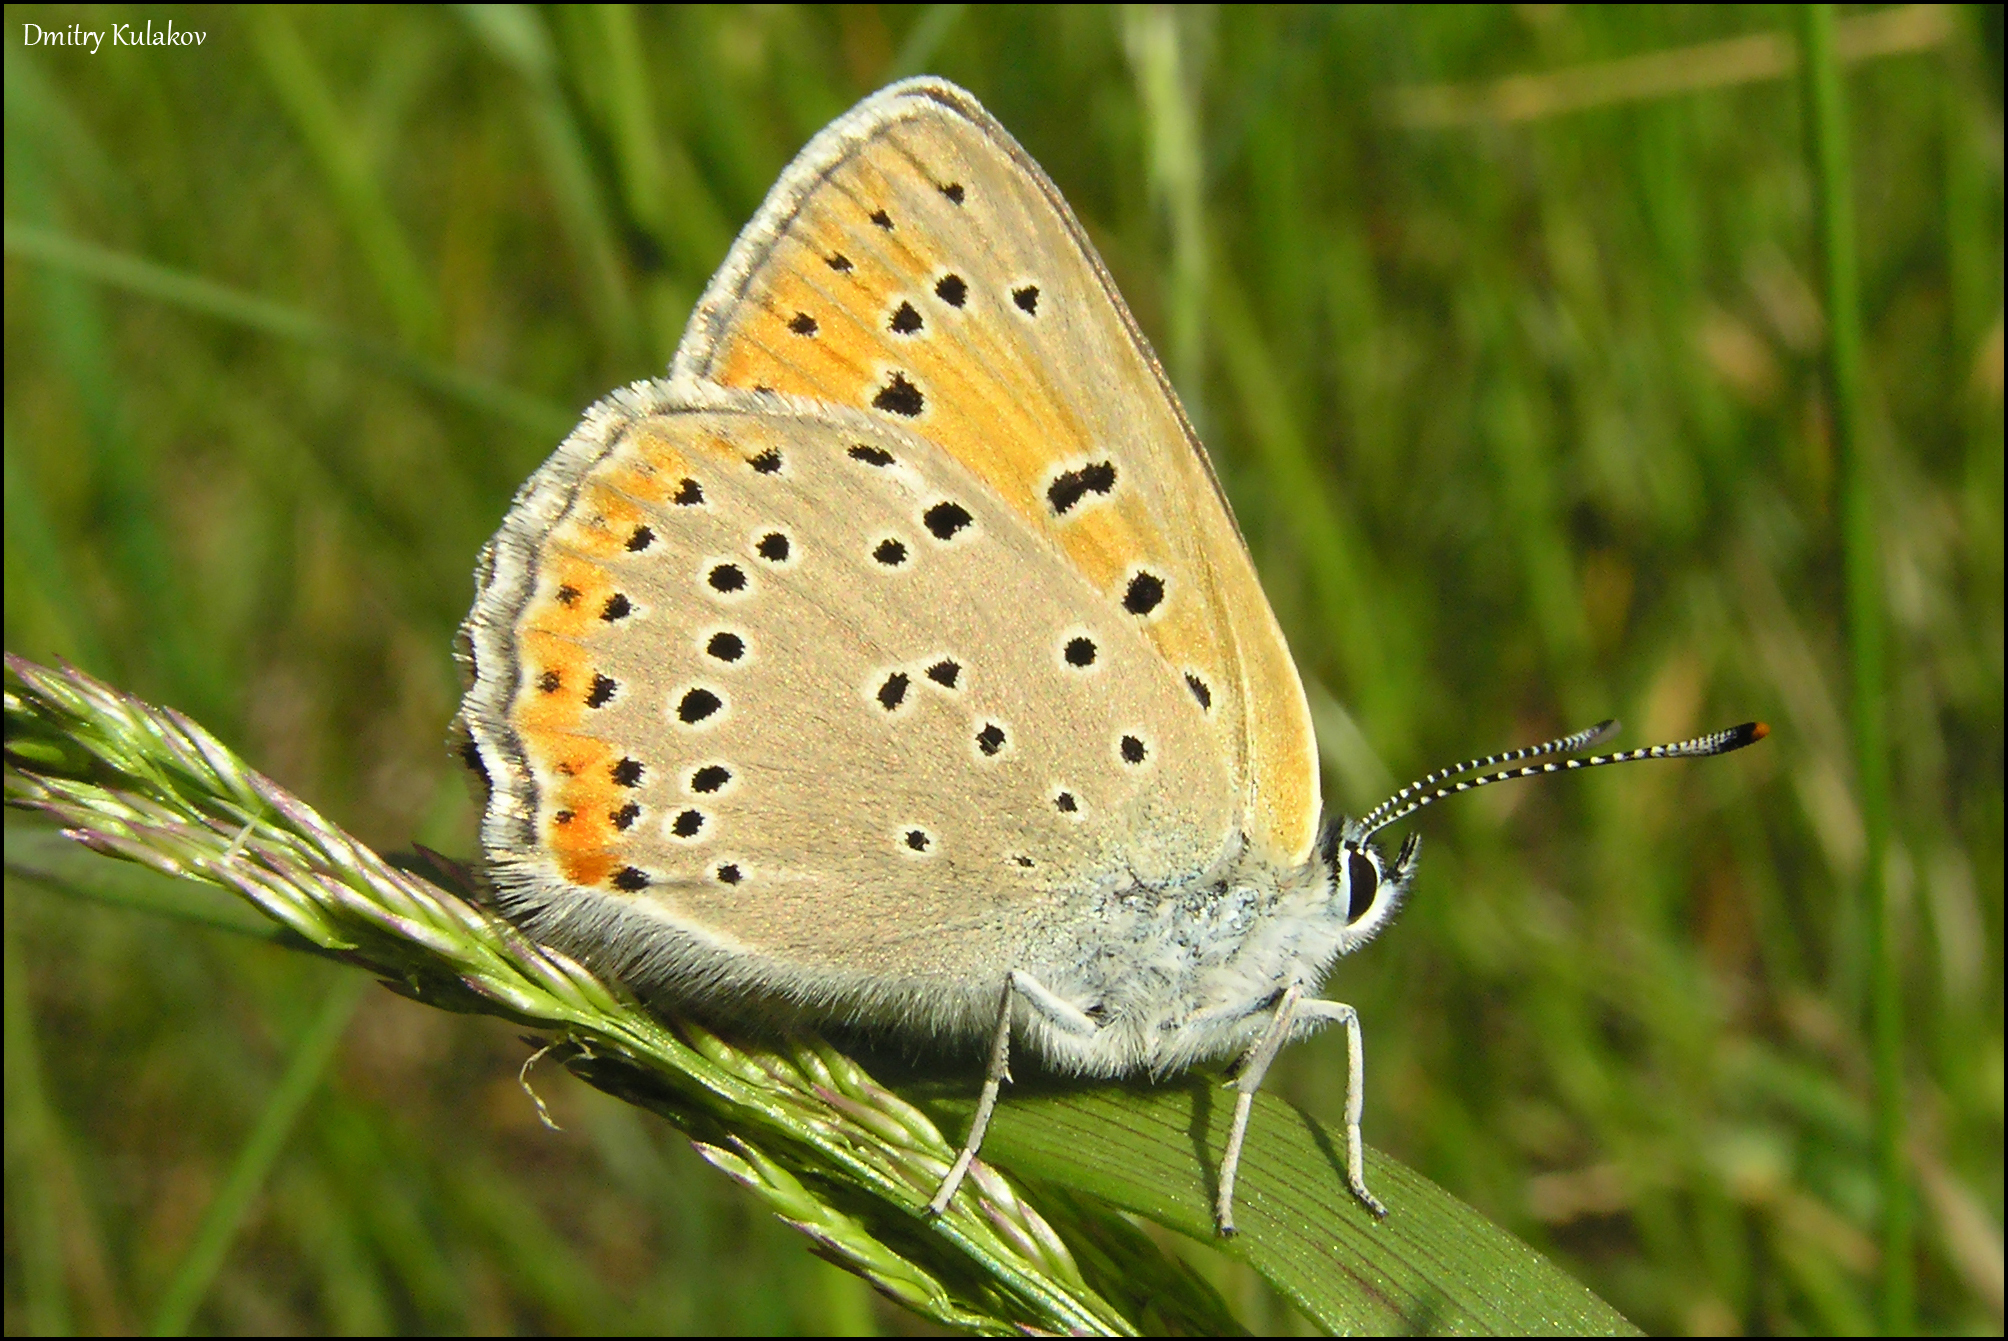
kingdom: Animalia
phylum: Arthropoda
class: Insecta
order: Lepidoptera
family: Lycaenidae
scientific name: Lycaenidae
